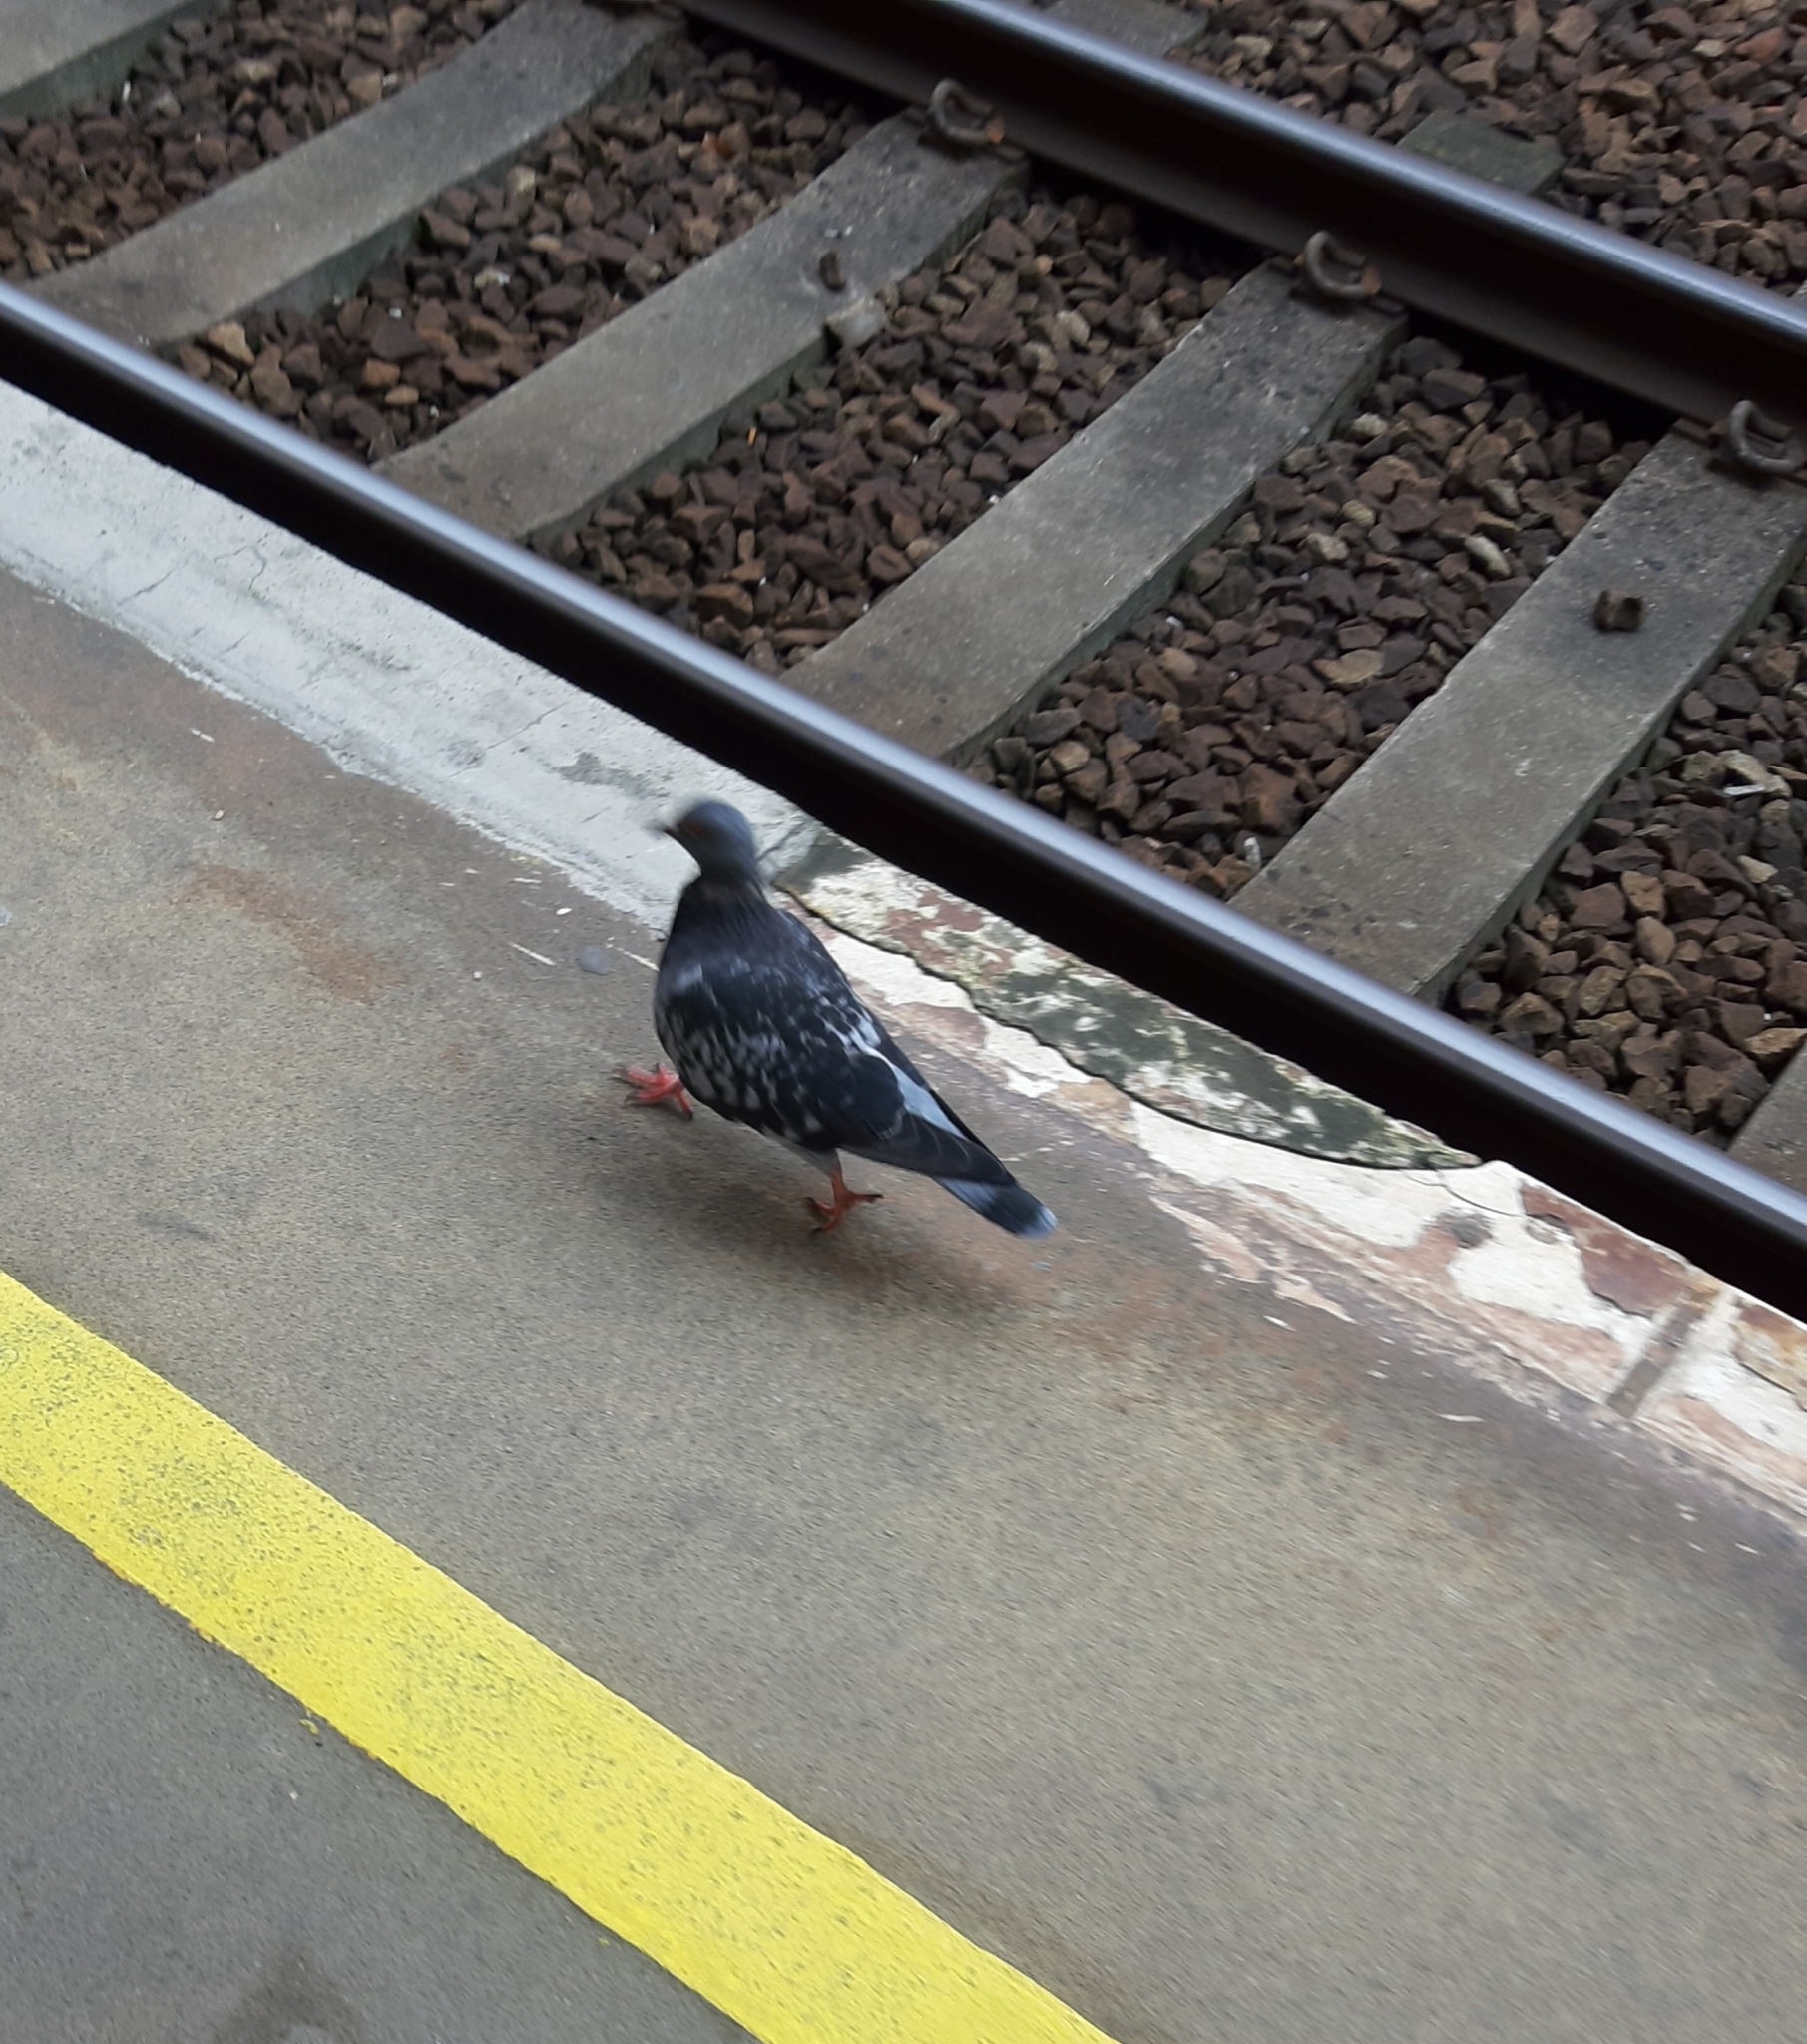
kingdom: Animalia
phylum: Chordata
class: Aves
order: Columbiformes
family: Columbidae
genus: Columba
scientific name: Columba livia
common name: Rock pigeon
